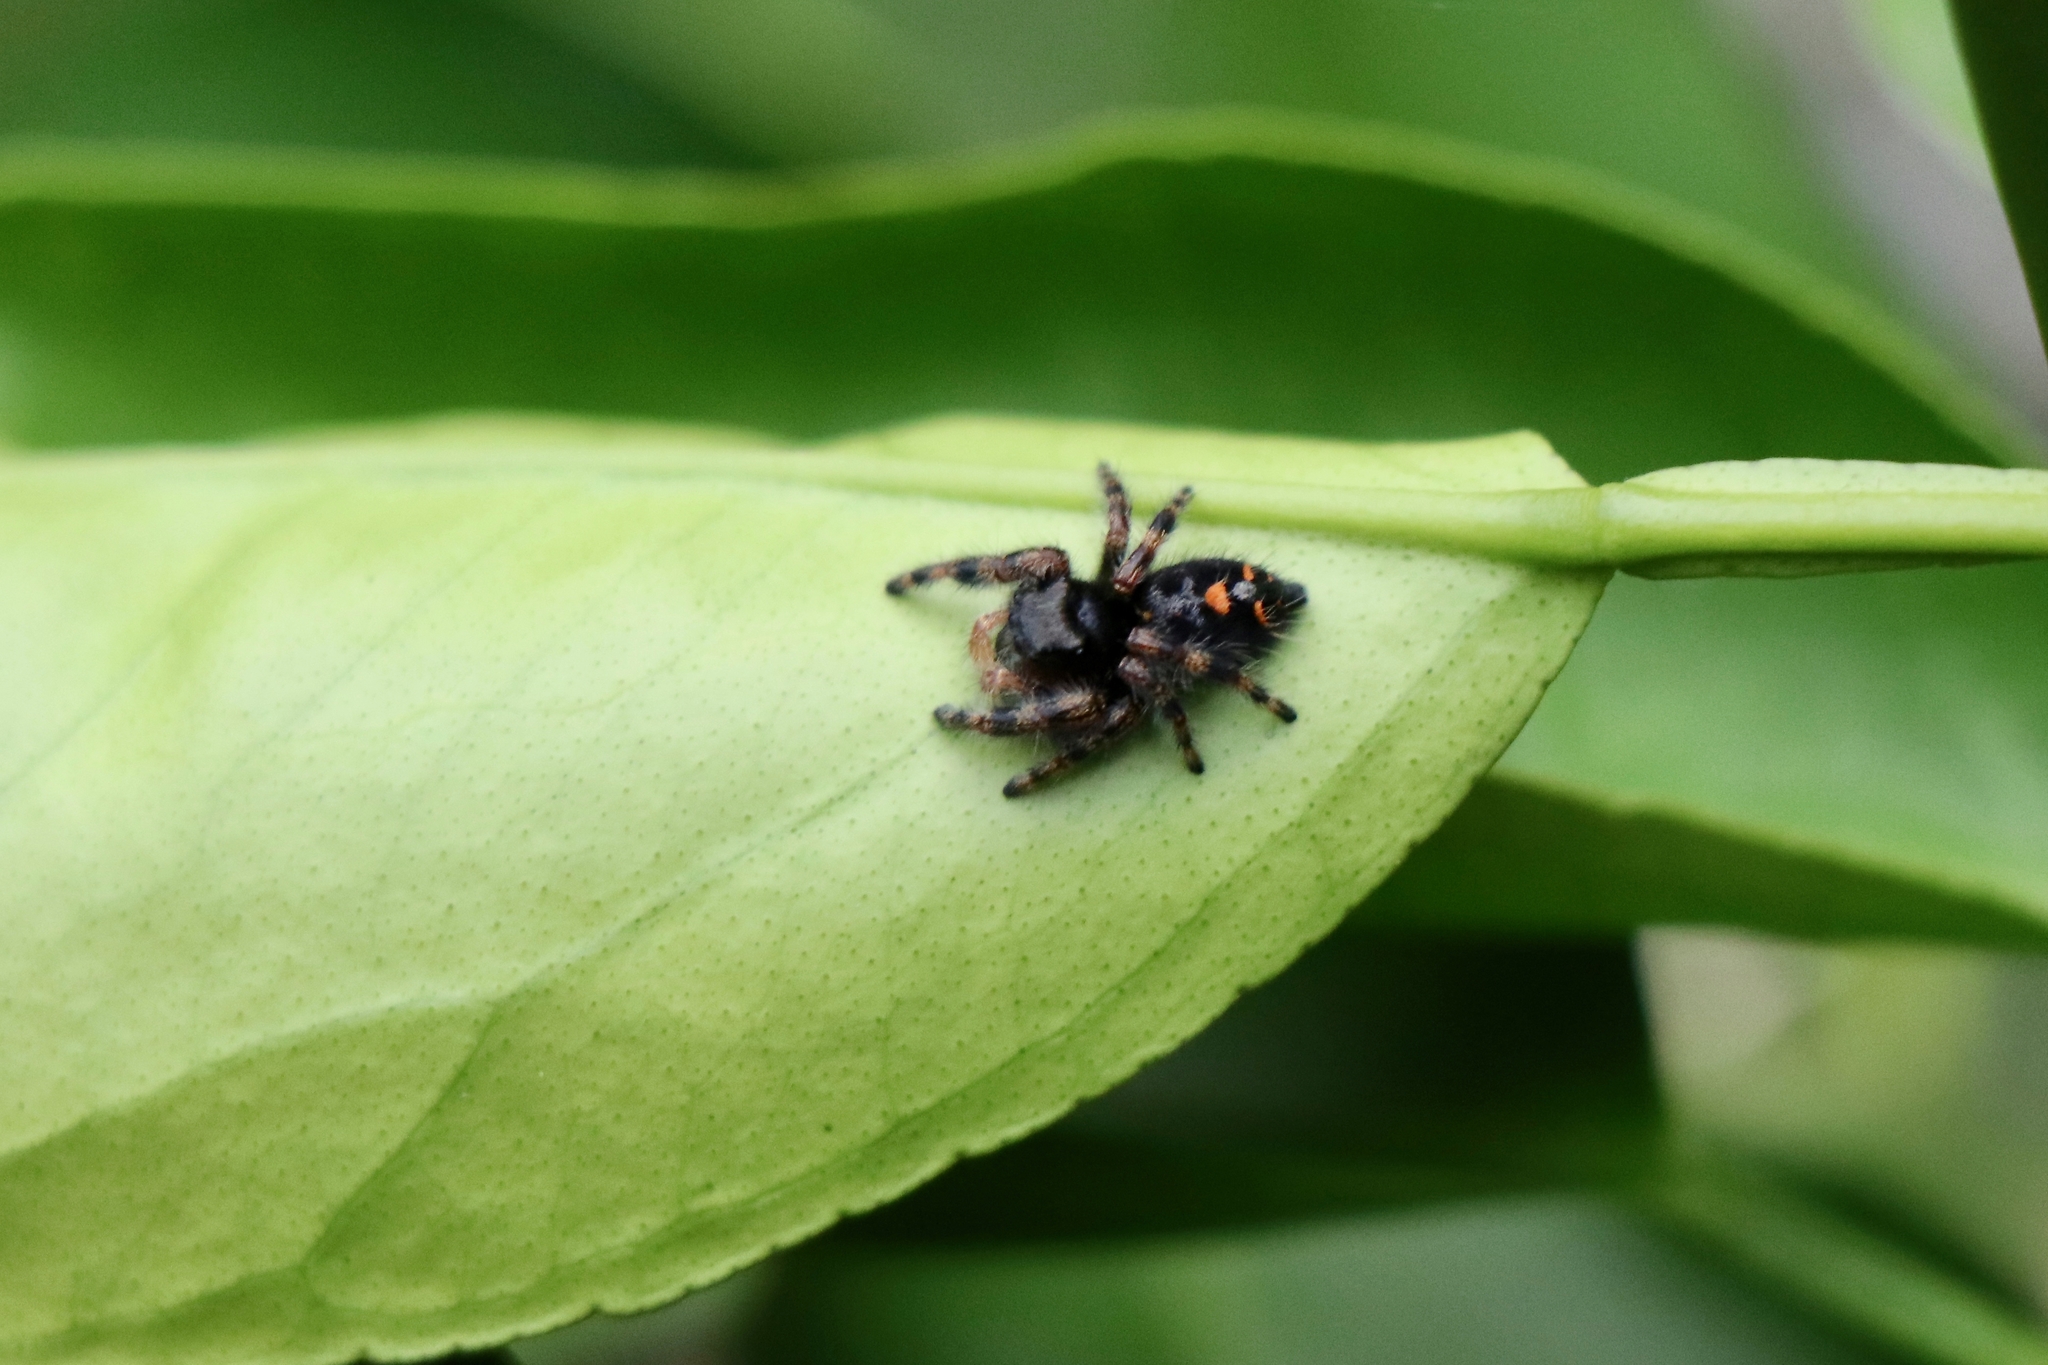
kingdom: Animalia
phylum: Arthropoda
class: Arachnida
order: Araneae
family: Salticidae
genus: Phidippus
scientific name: Phidippus audax
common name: Bold jumper
